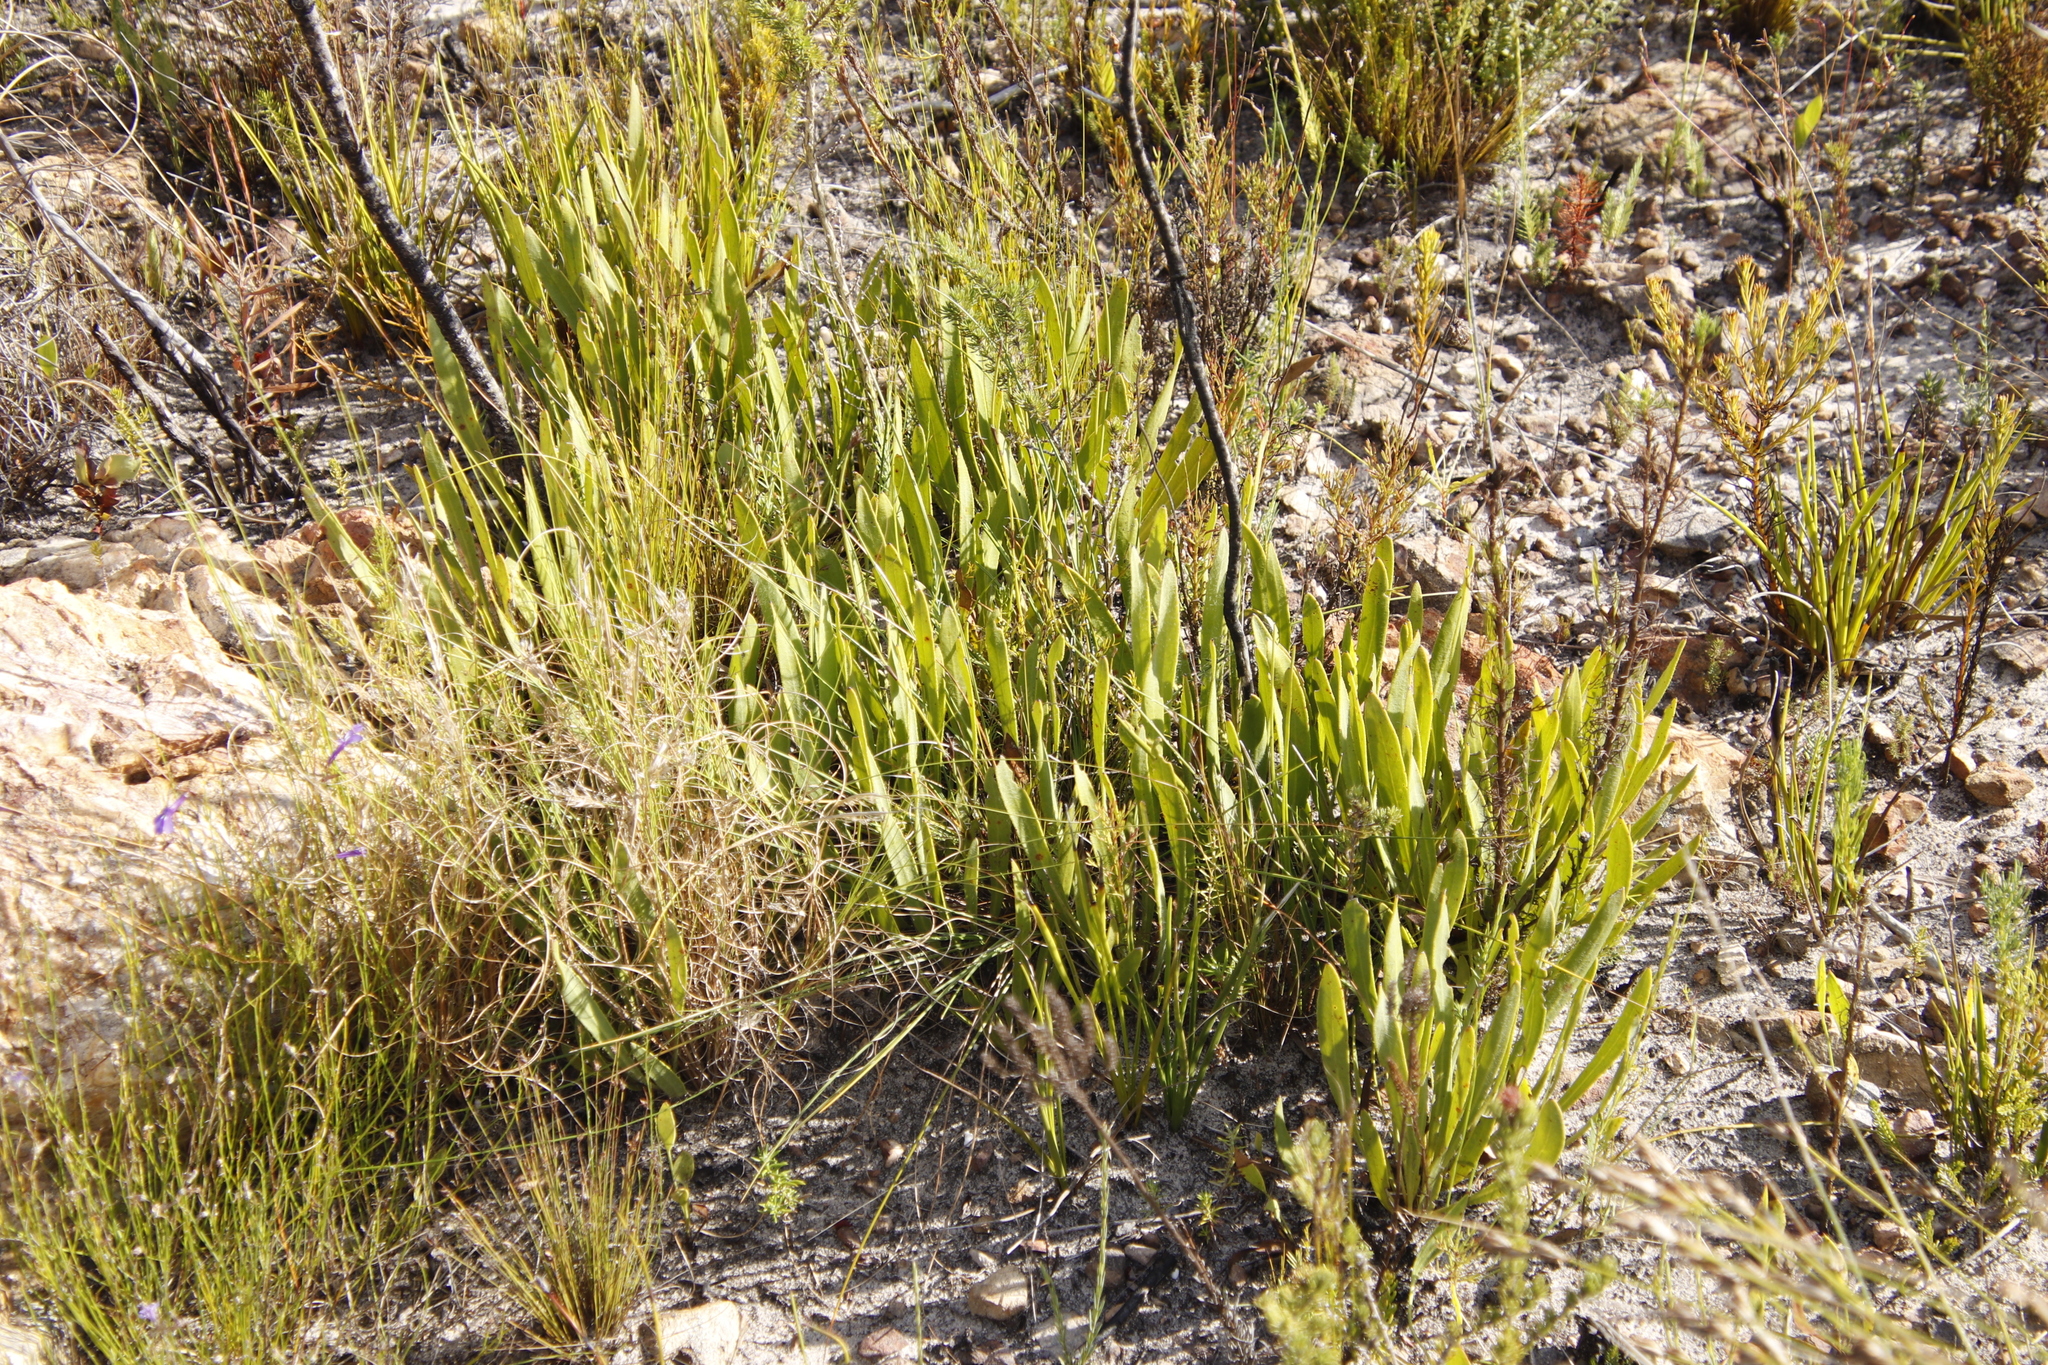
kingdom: Plantae
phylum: Tracheophyta
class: Magnoliopsida
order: Proteales
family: Proteaceae
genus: Protea
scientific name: Protea scabra
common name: Sandpaper-leaf sugarbush
